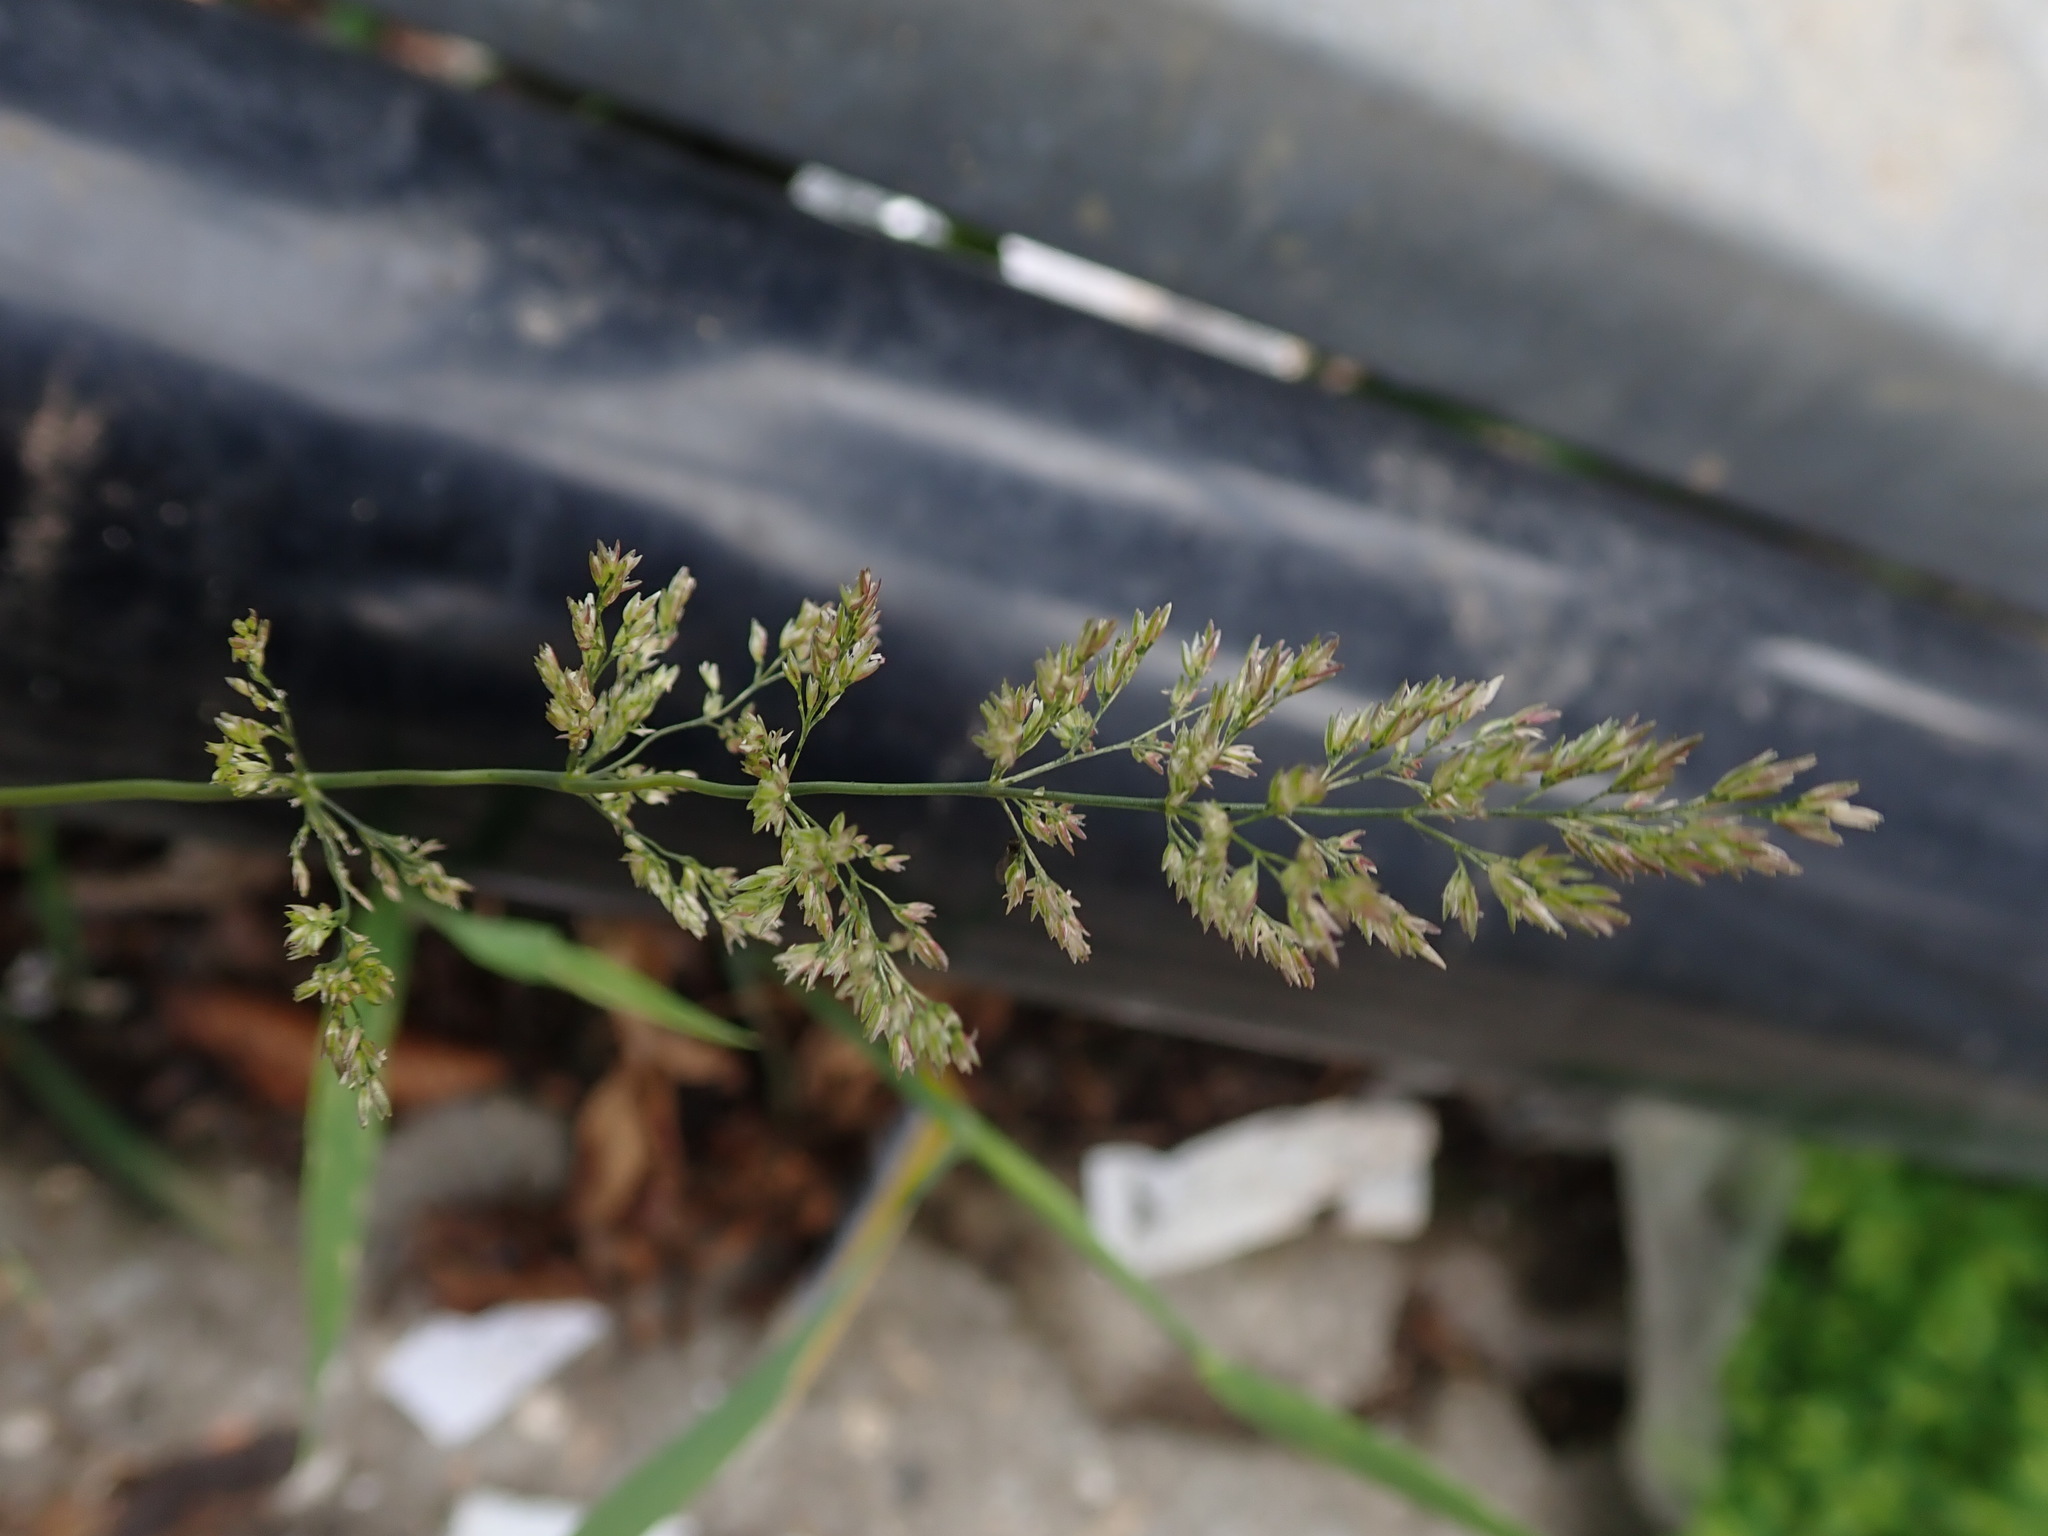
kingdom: Plantae
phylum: Tracheophyta
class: Liliopsida
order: Poales
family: Poaceae
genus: Polypogon
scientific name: Polypogon viridis
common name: Water bent
